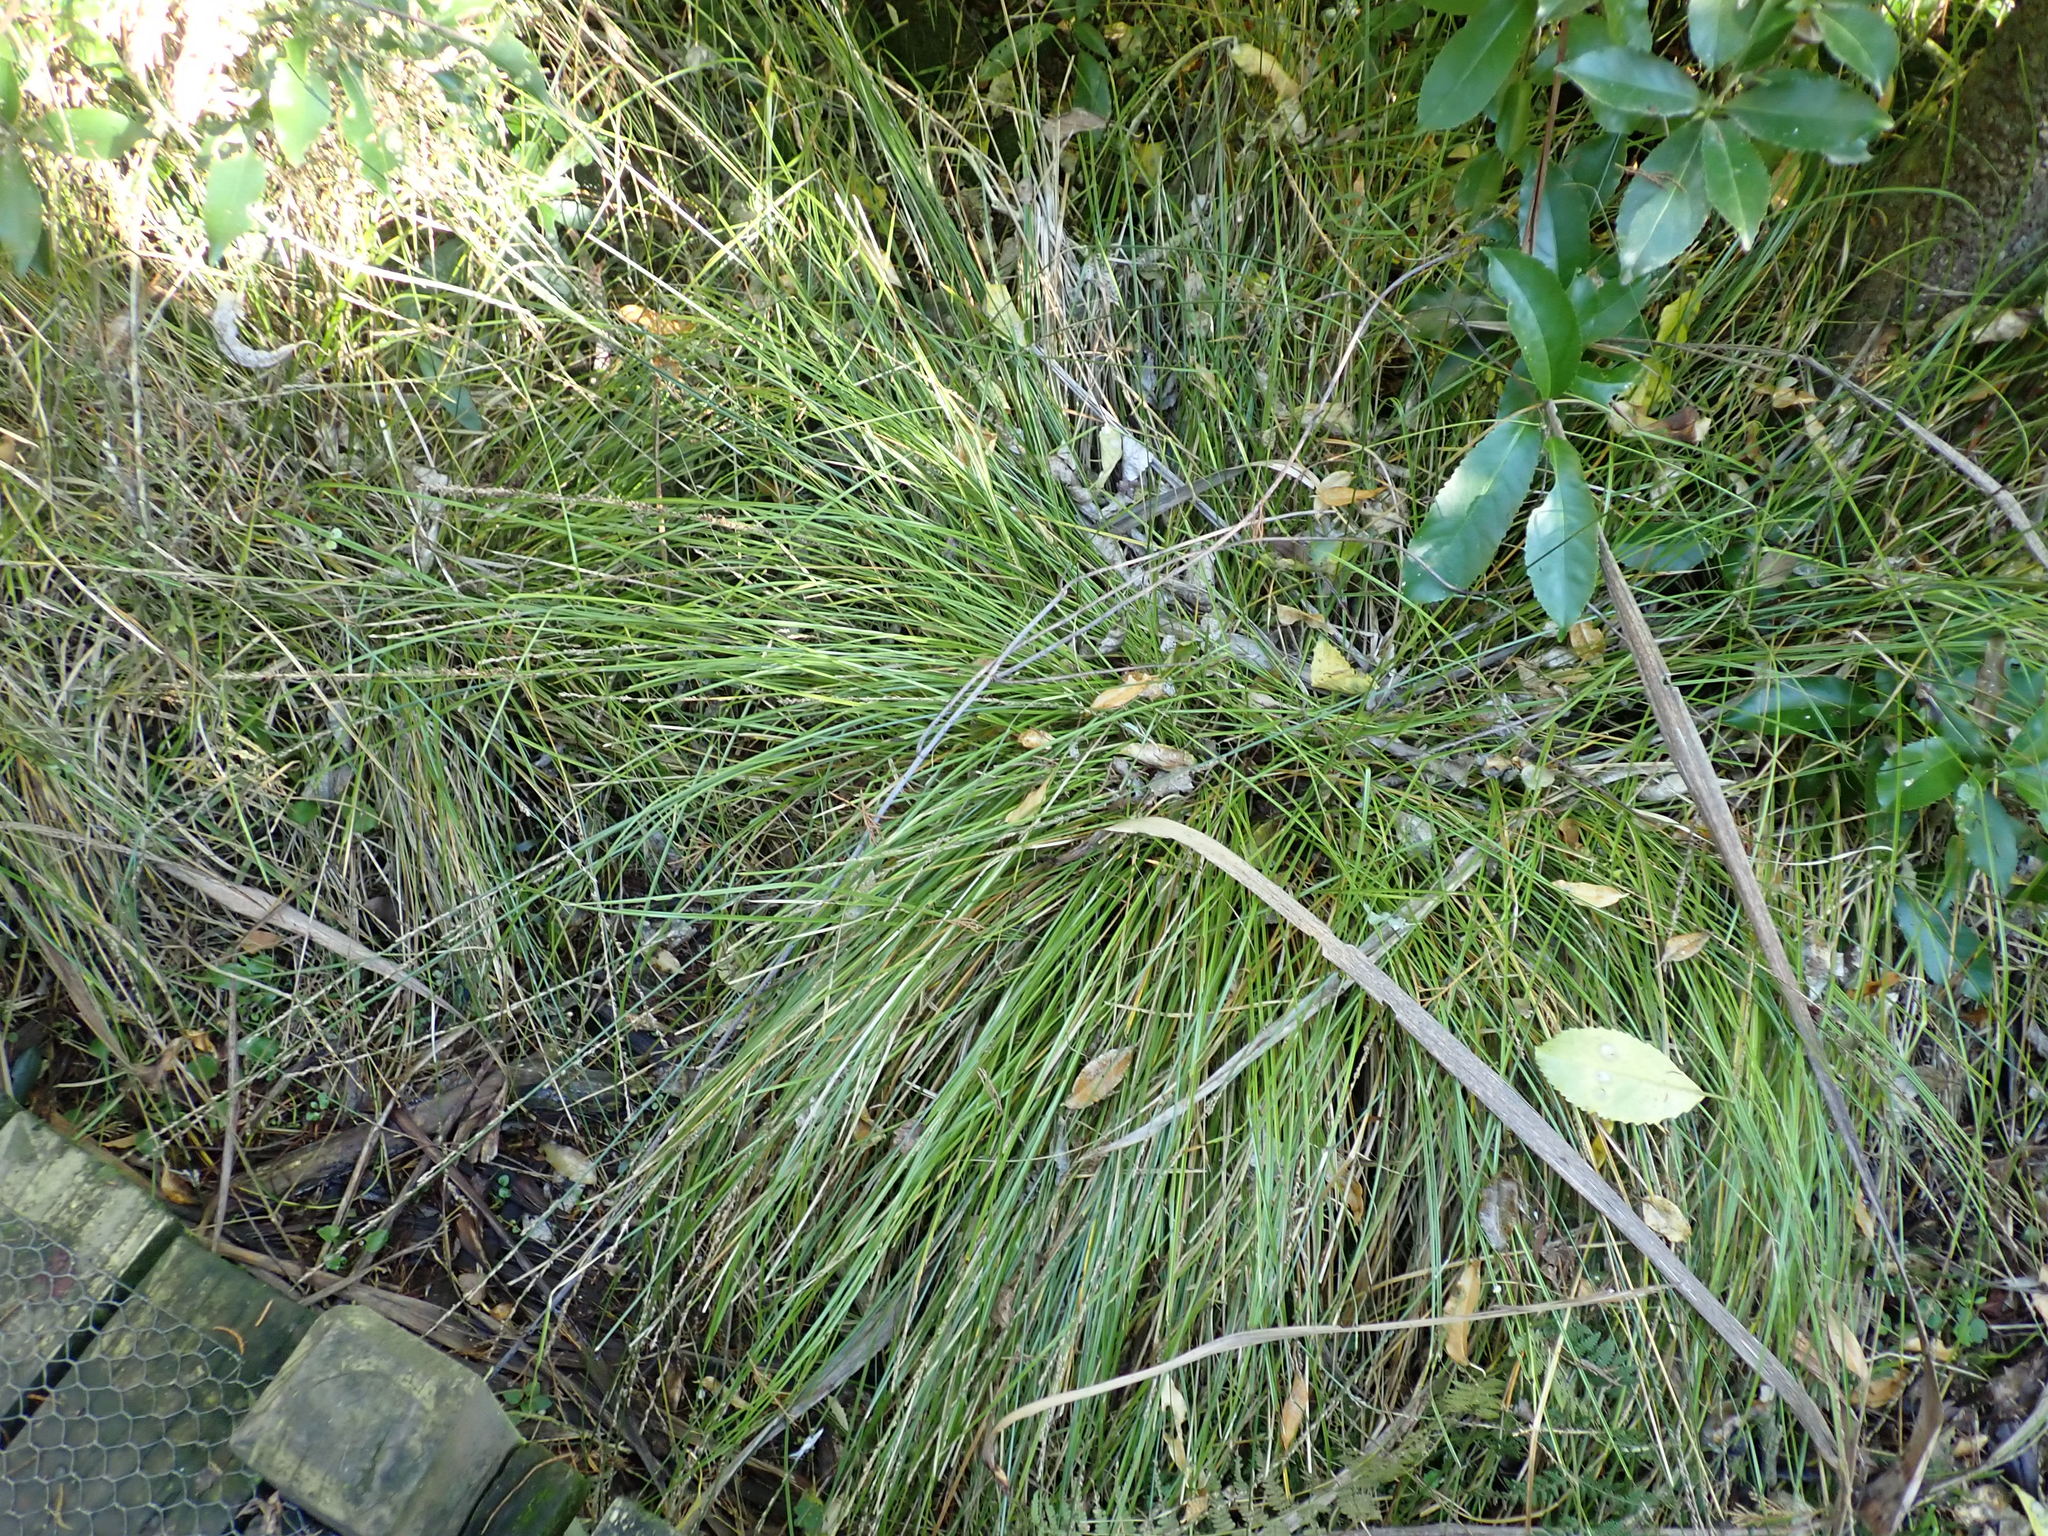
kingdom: Plantae
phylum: Tracheophyta
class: Liliopsida
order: Poales
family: Cyperaceae
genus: Carex
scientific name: Carex secta
